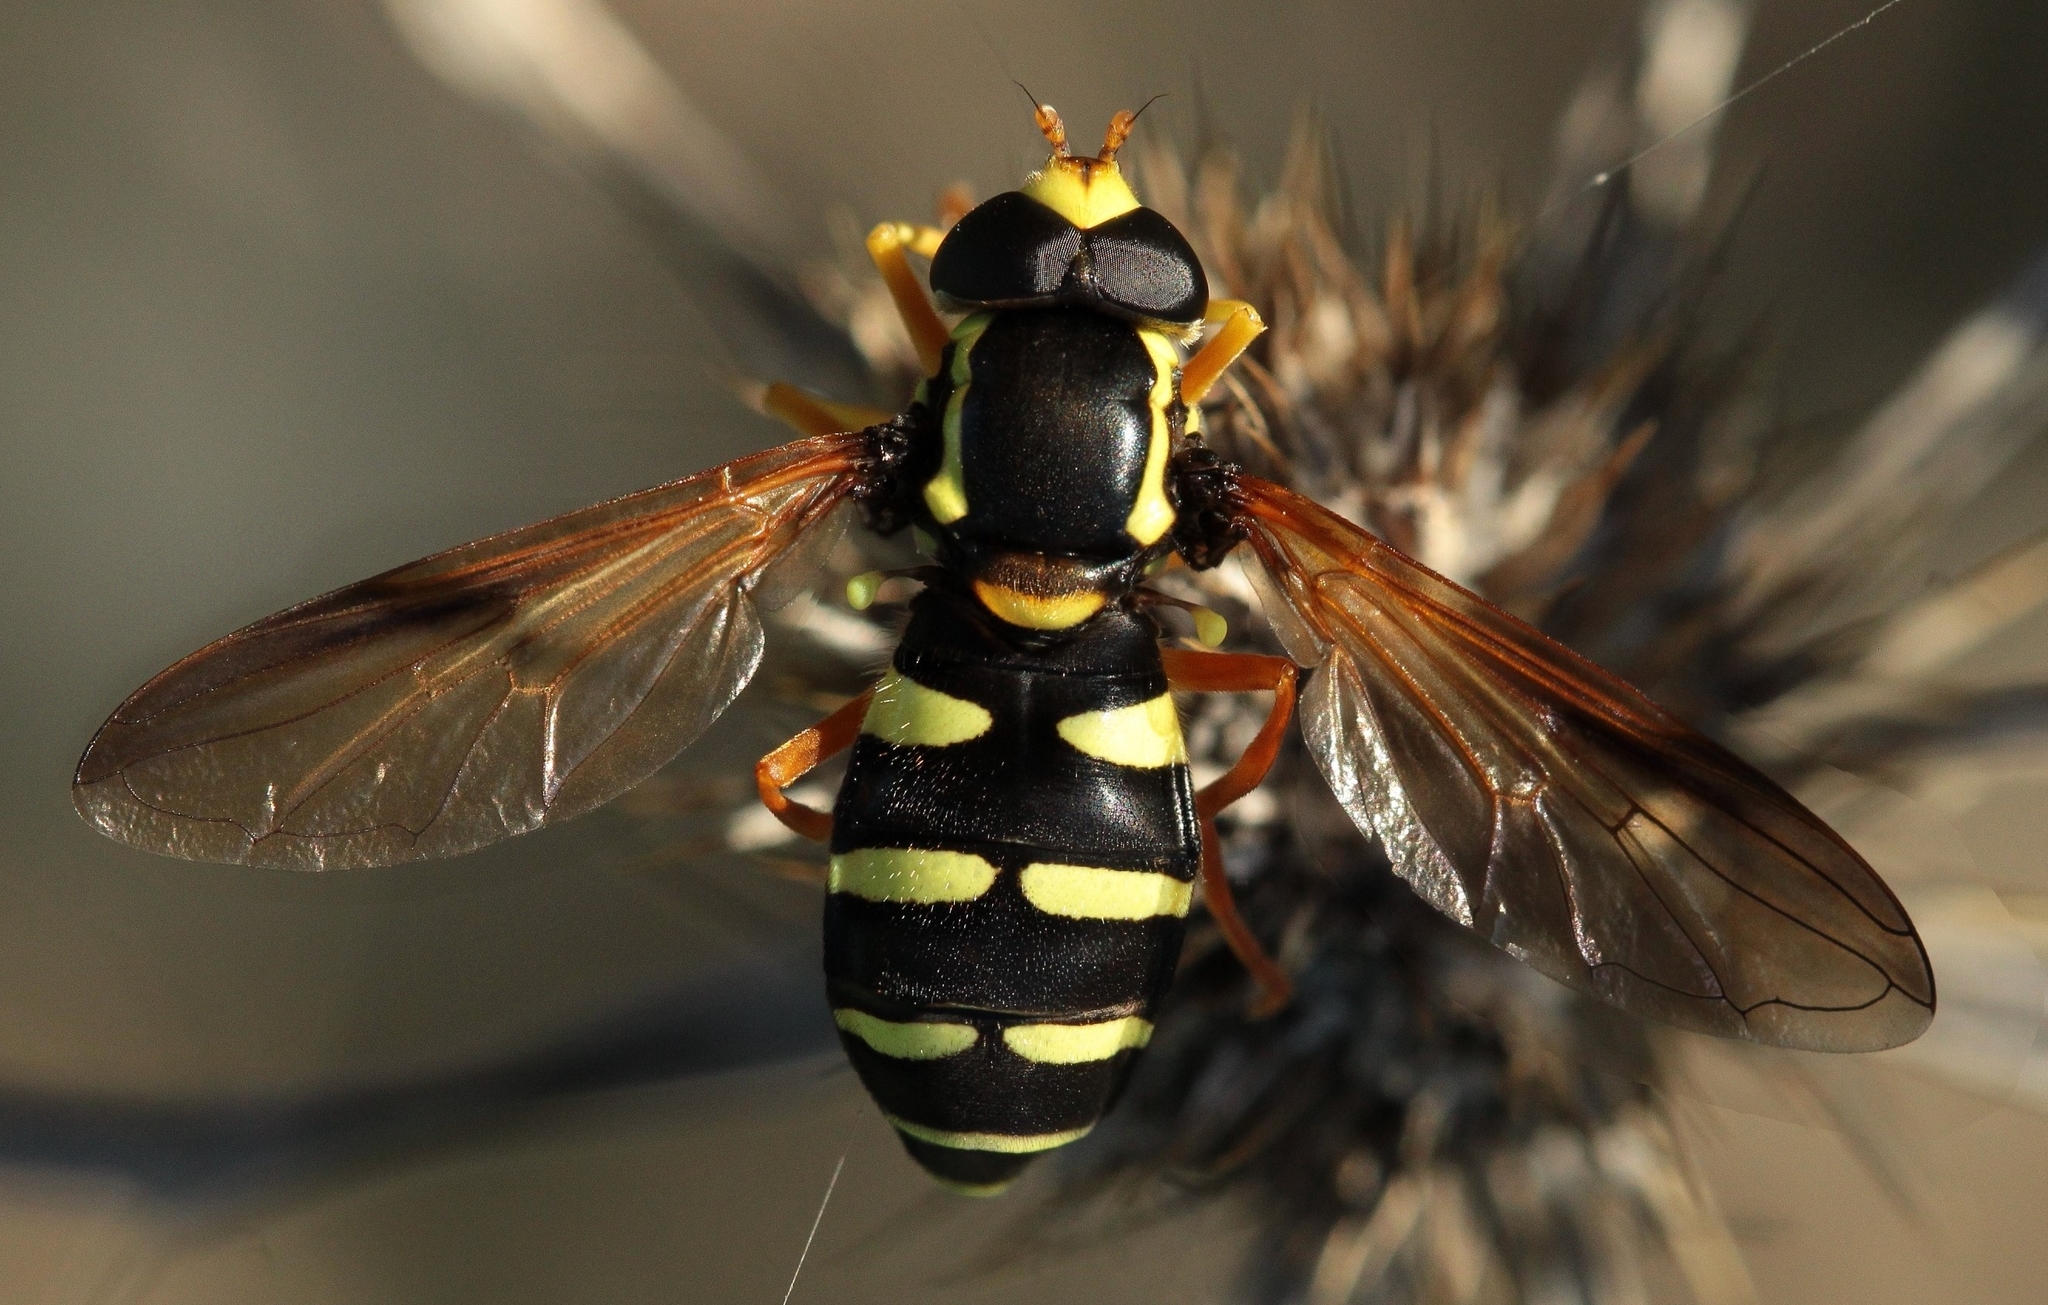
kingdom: Animalia
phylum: Arthropoda
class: Insecta
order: Diptera
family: Syrphidae
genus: Philhelius
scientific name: Philhelius citrofasciata
